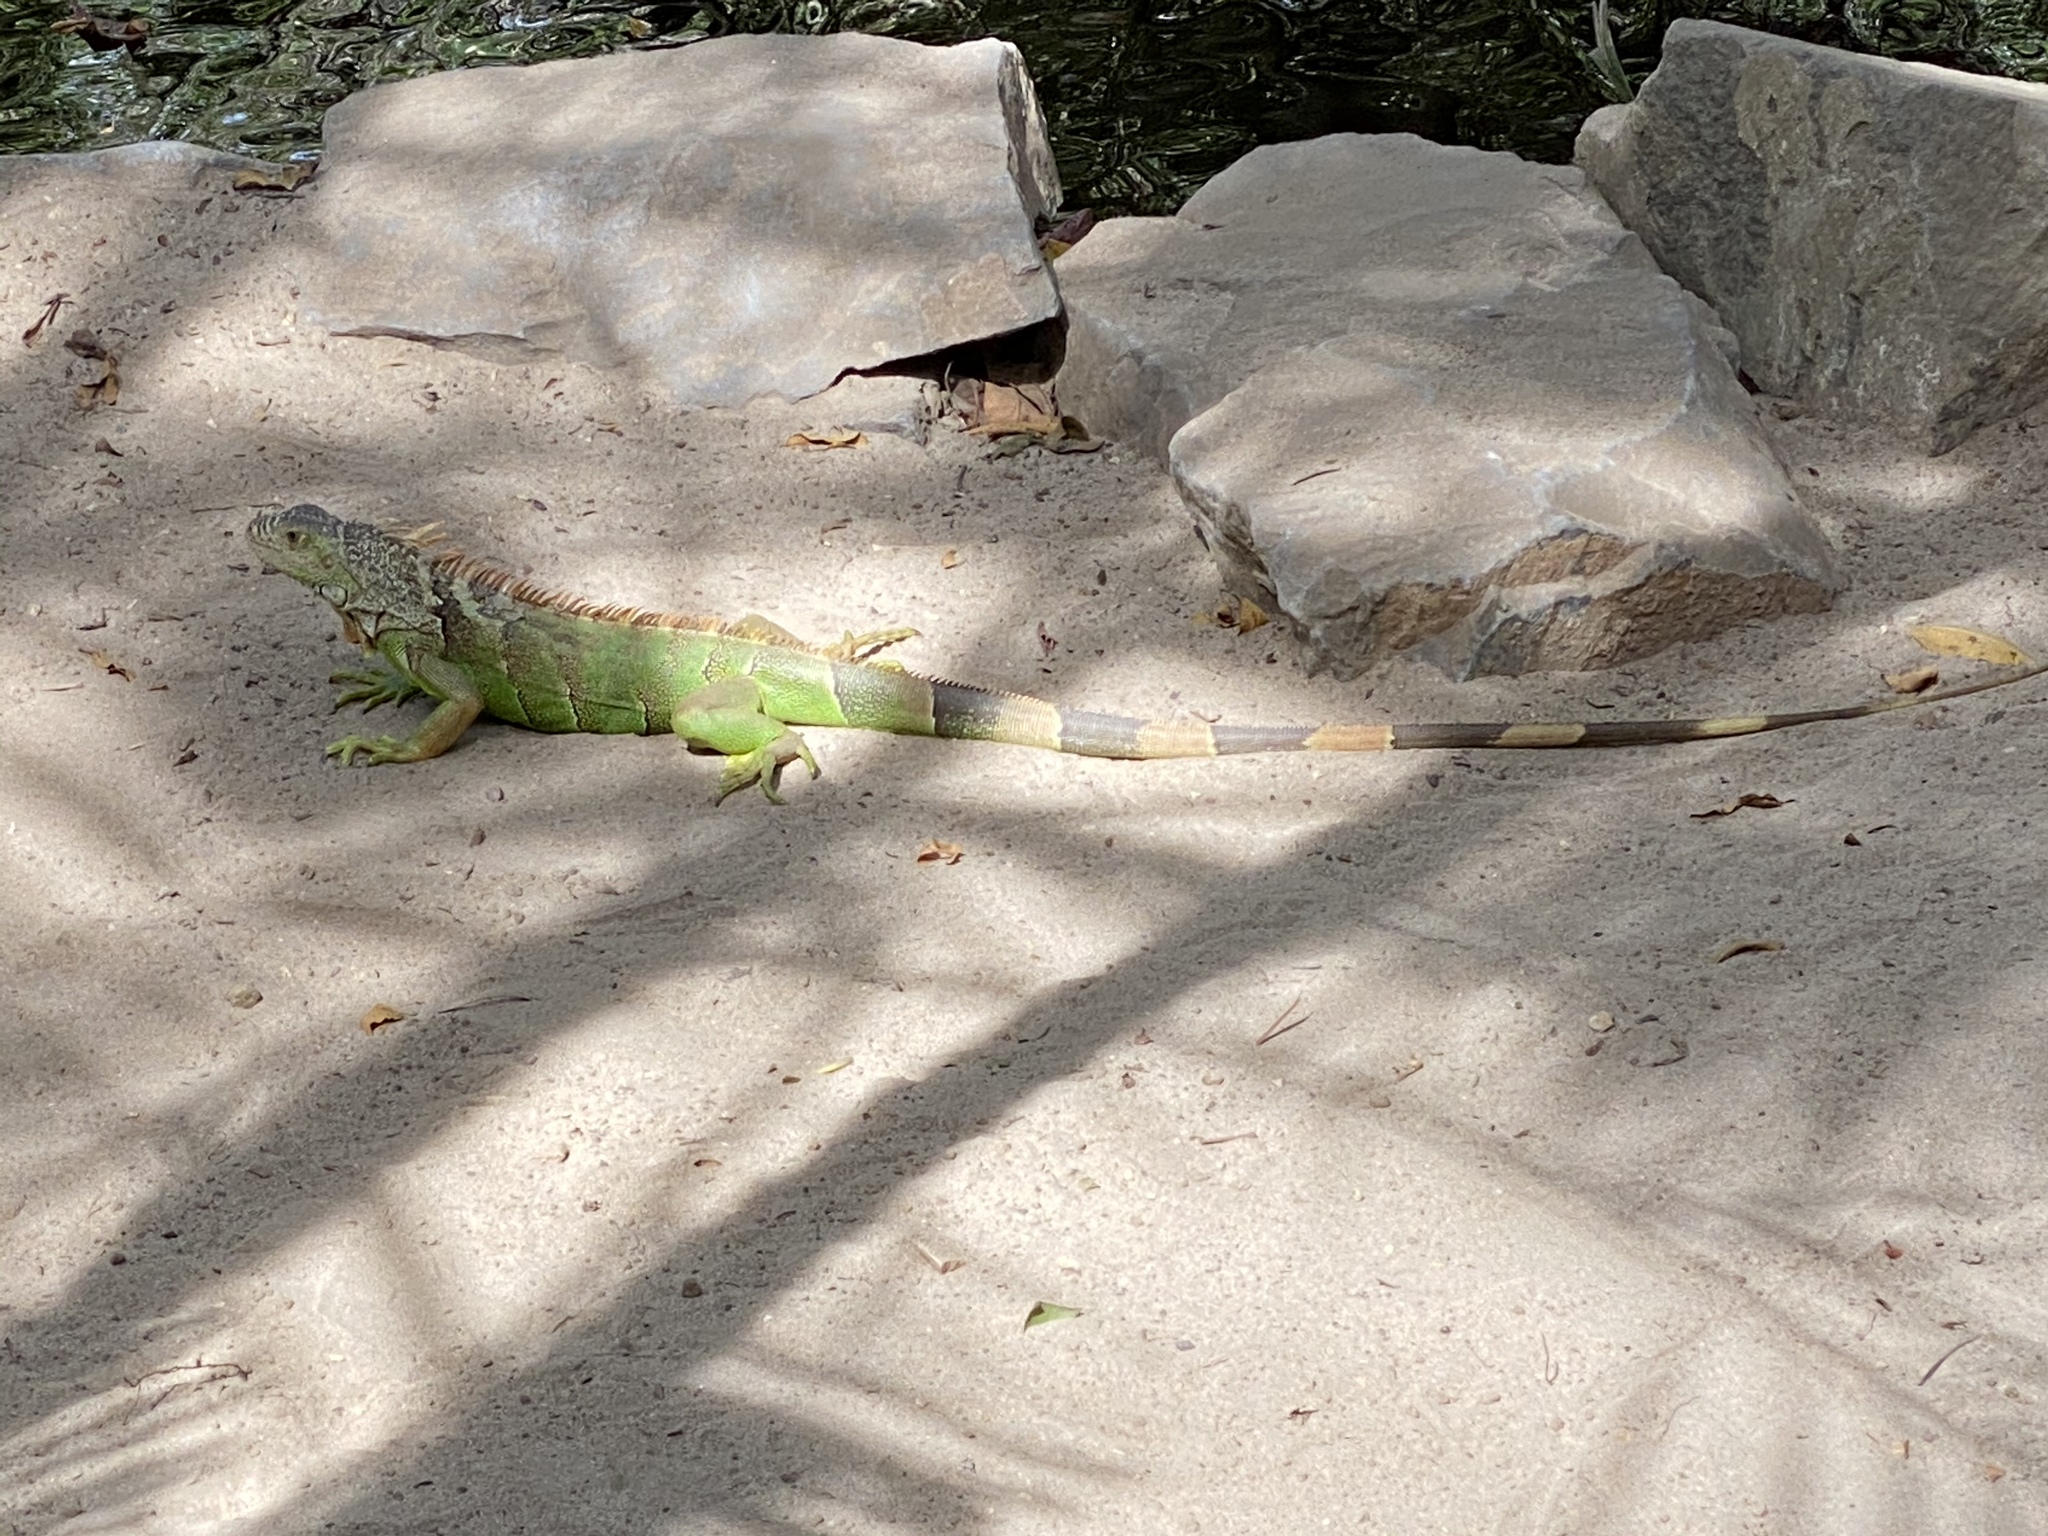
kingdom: Animalia
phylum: Chordata
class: Squamata
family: Iguanidae
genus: Iguana
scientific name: Iguana iguana
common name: Green iguana
